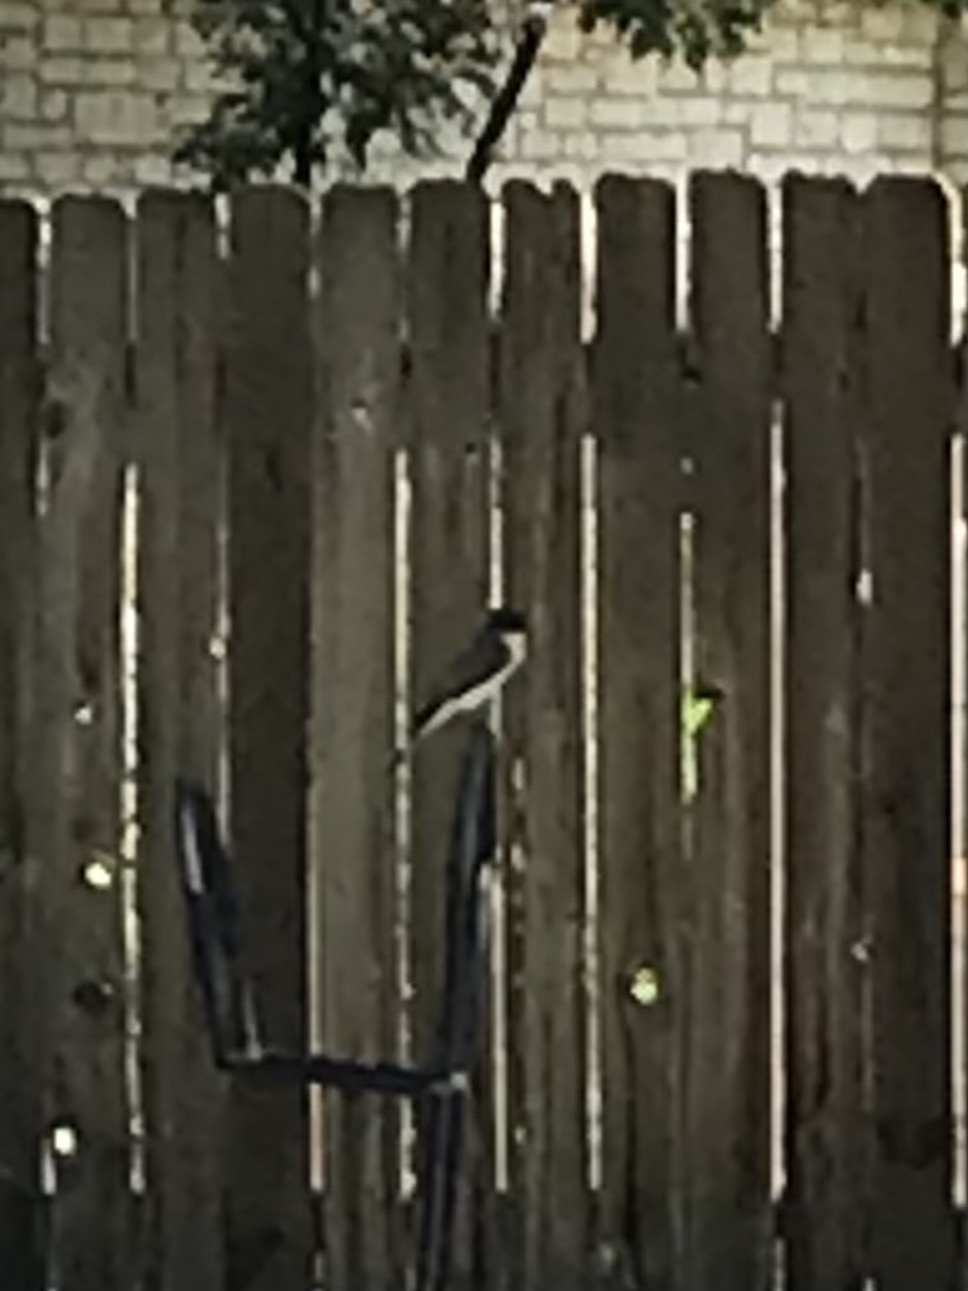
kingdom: Animalia
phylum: Chordata
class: Aves
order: Passeriformes
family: Tyrannidae
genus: Sayornis
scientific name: Sayornis phoebe
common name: Eastern phoebe
